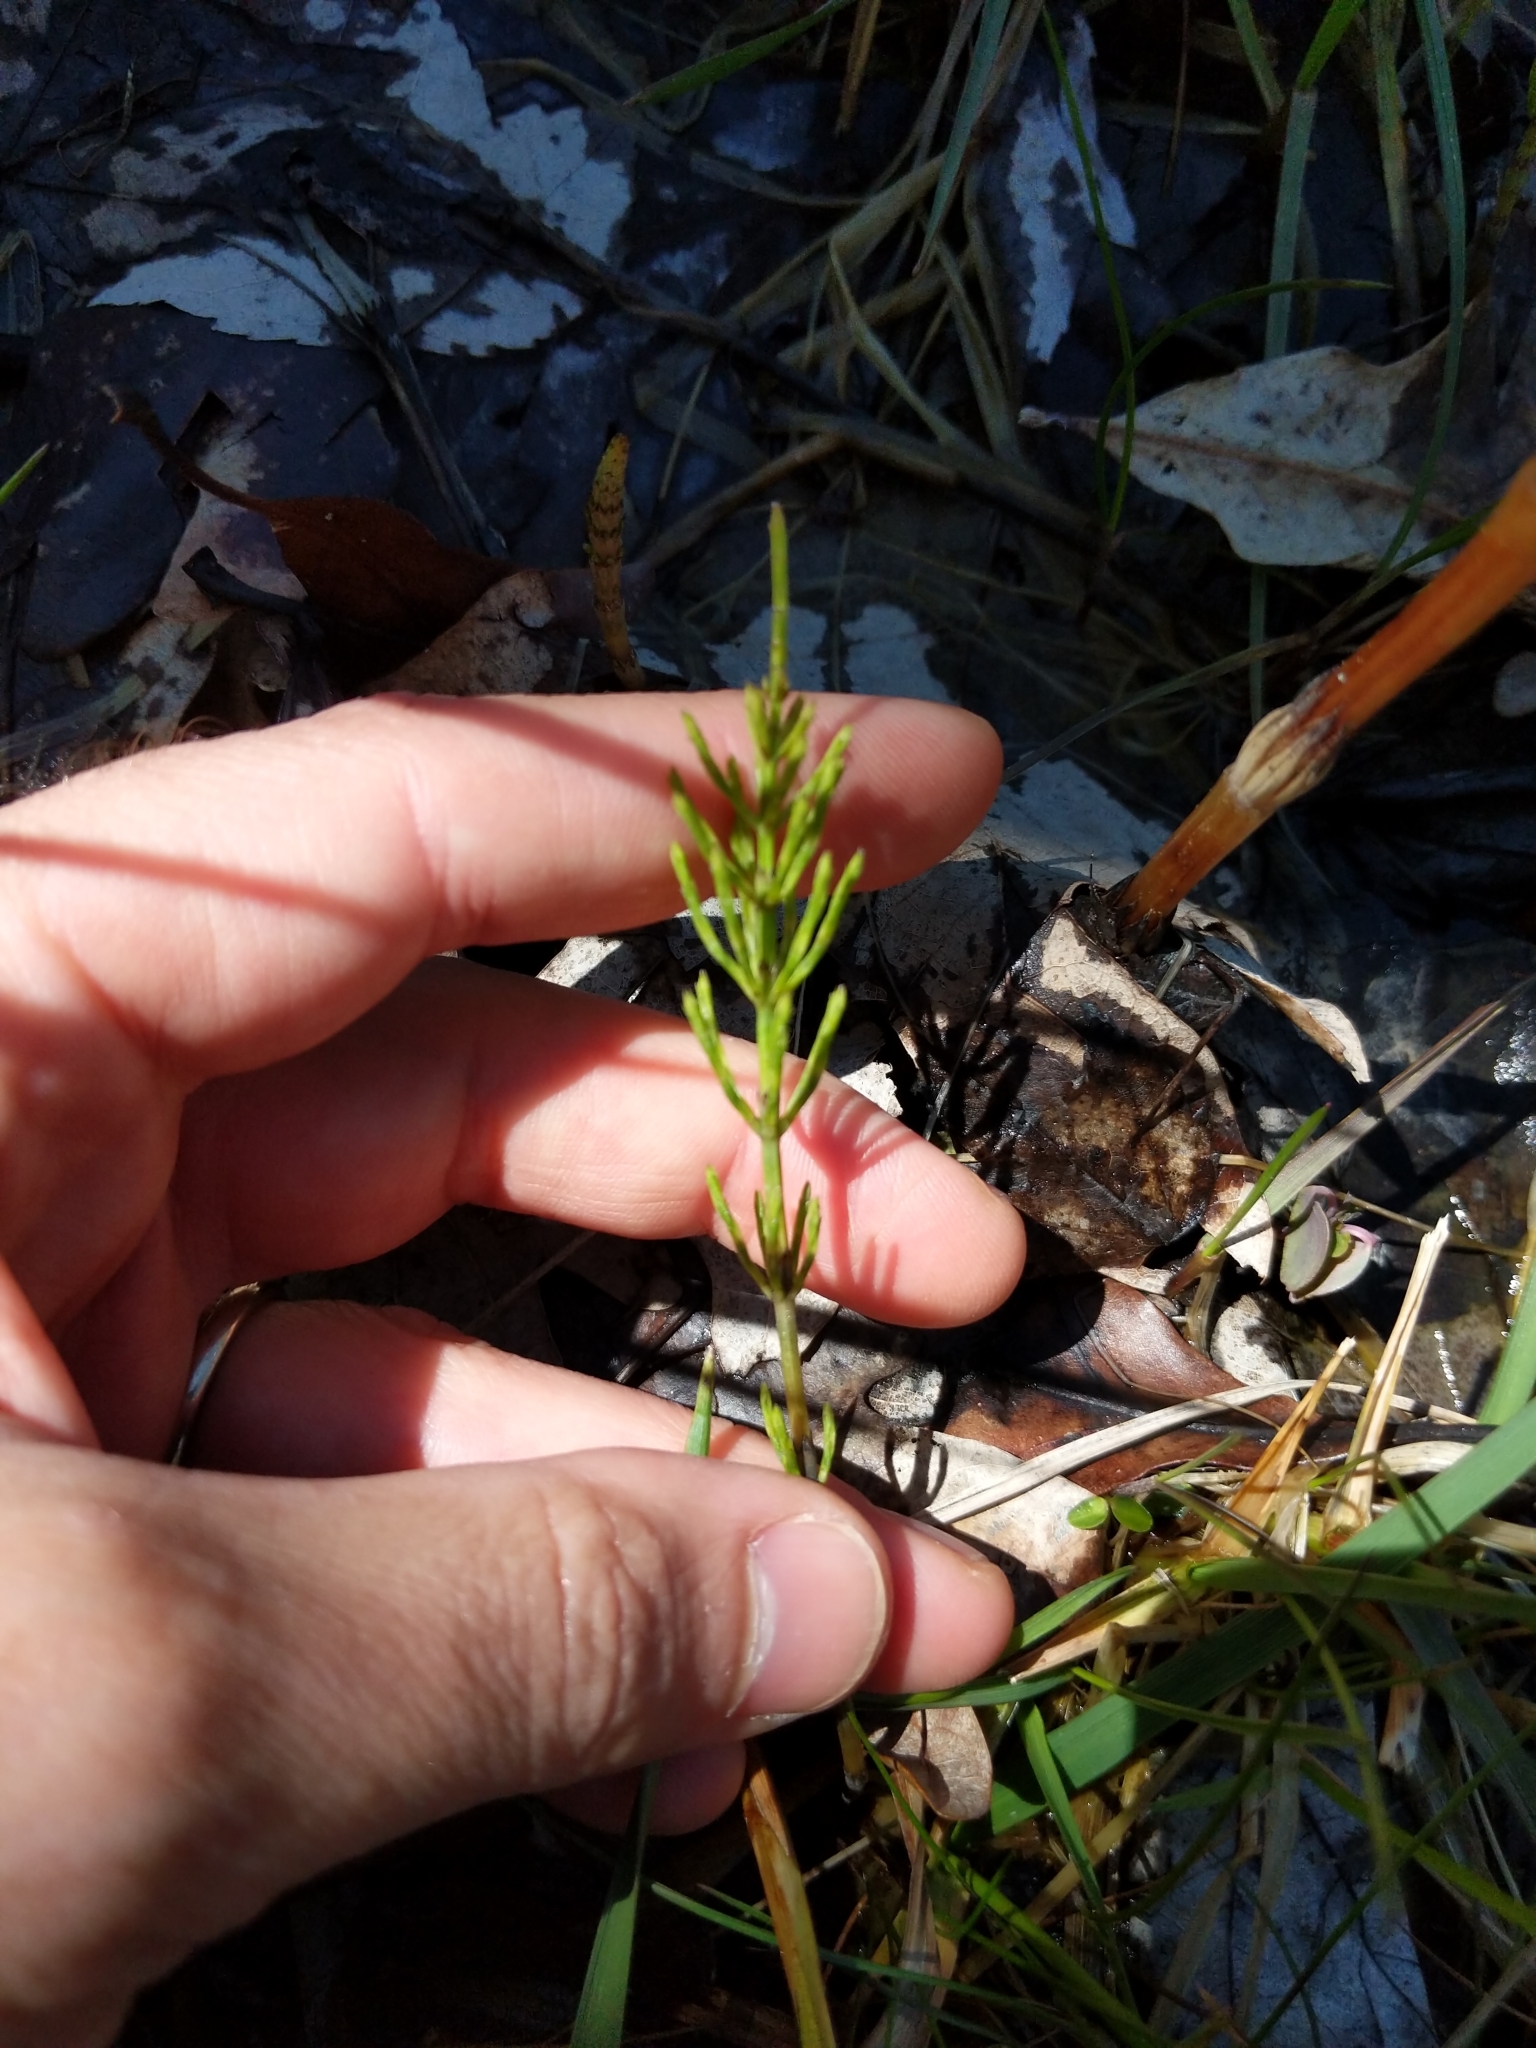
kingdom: Plantae
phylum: Tracheophyta
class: Polypodiopsida
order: Equisetales
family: Equisetaceae
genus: Equisetum
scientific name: Equisetum arvense
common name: Field horsetail
